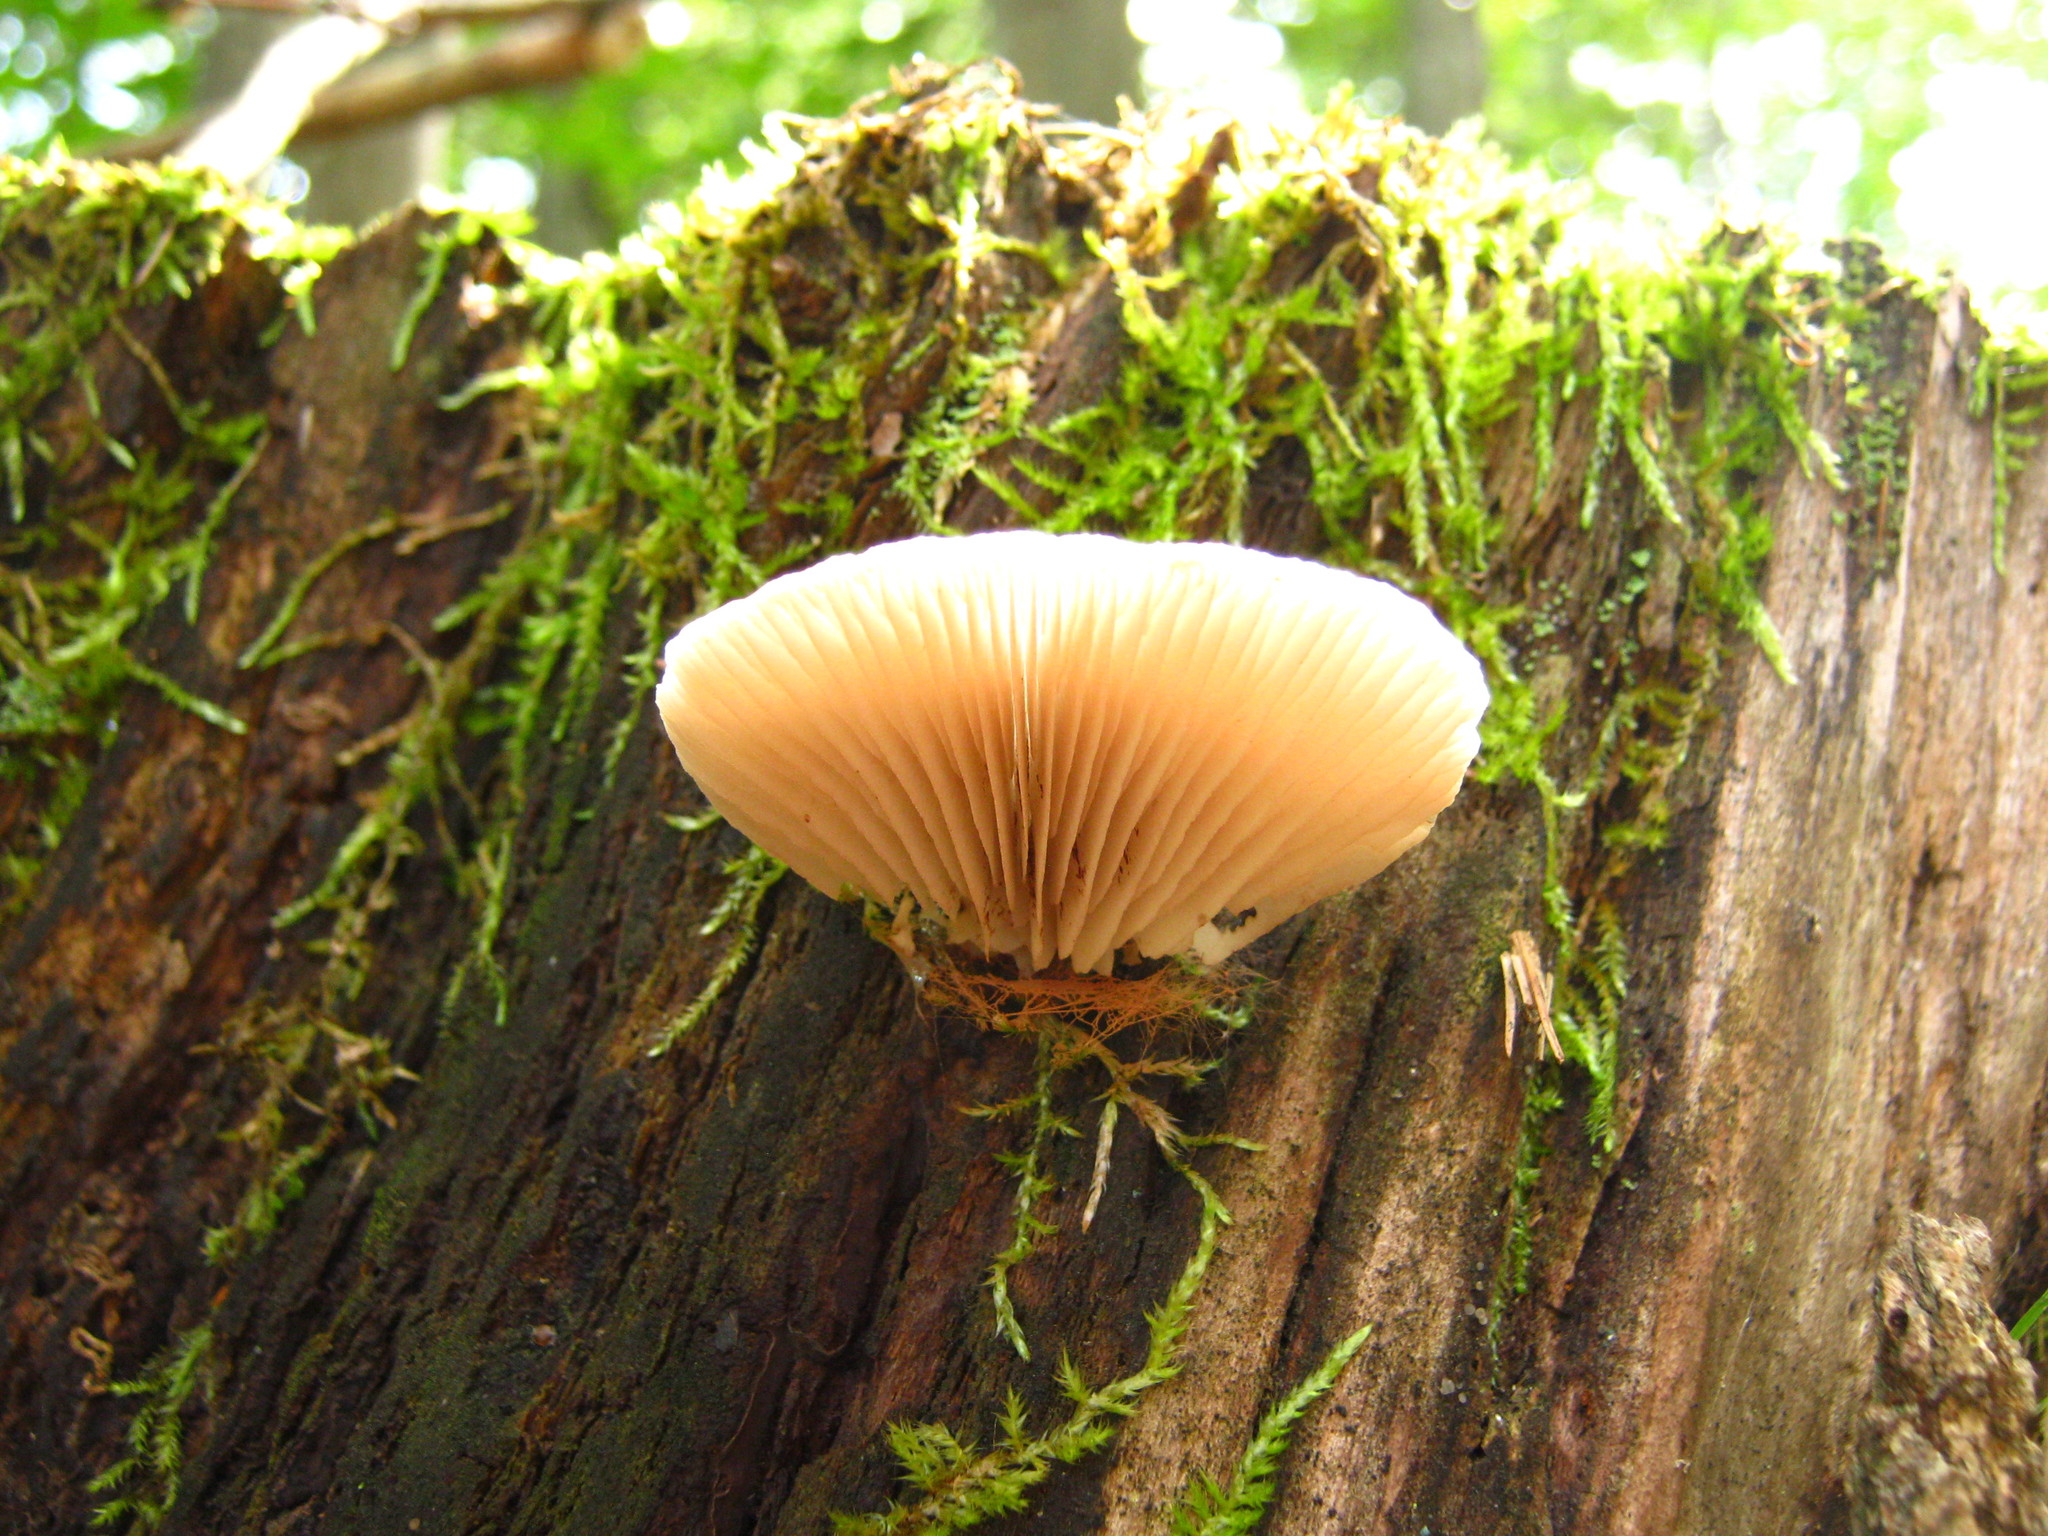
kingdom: Fungi
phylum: Basidiomycota
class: Agaricomycetes
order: Agaricales
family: Crepidotaceae
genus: Crepidotus
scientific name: Crepidotus applanatus
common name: Flat crep
